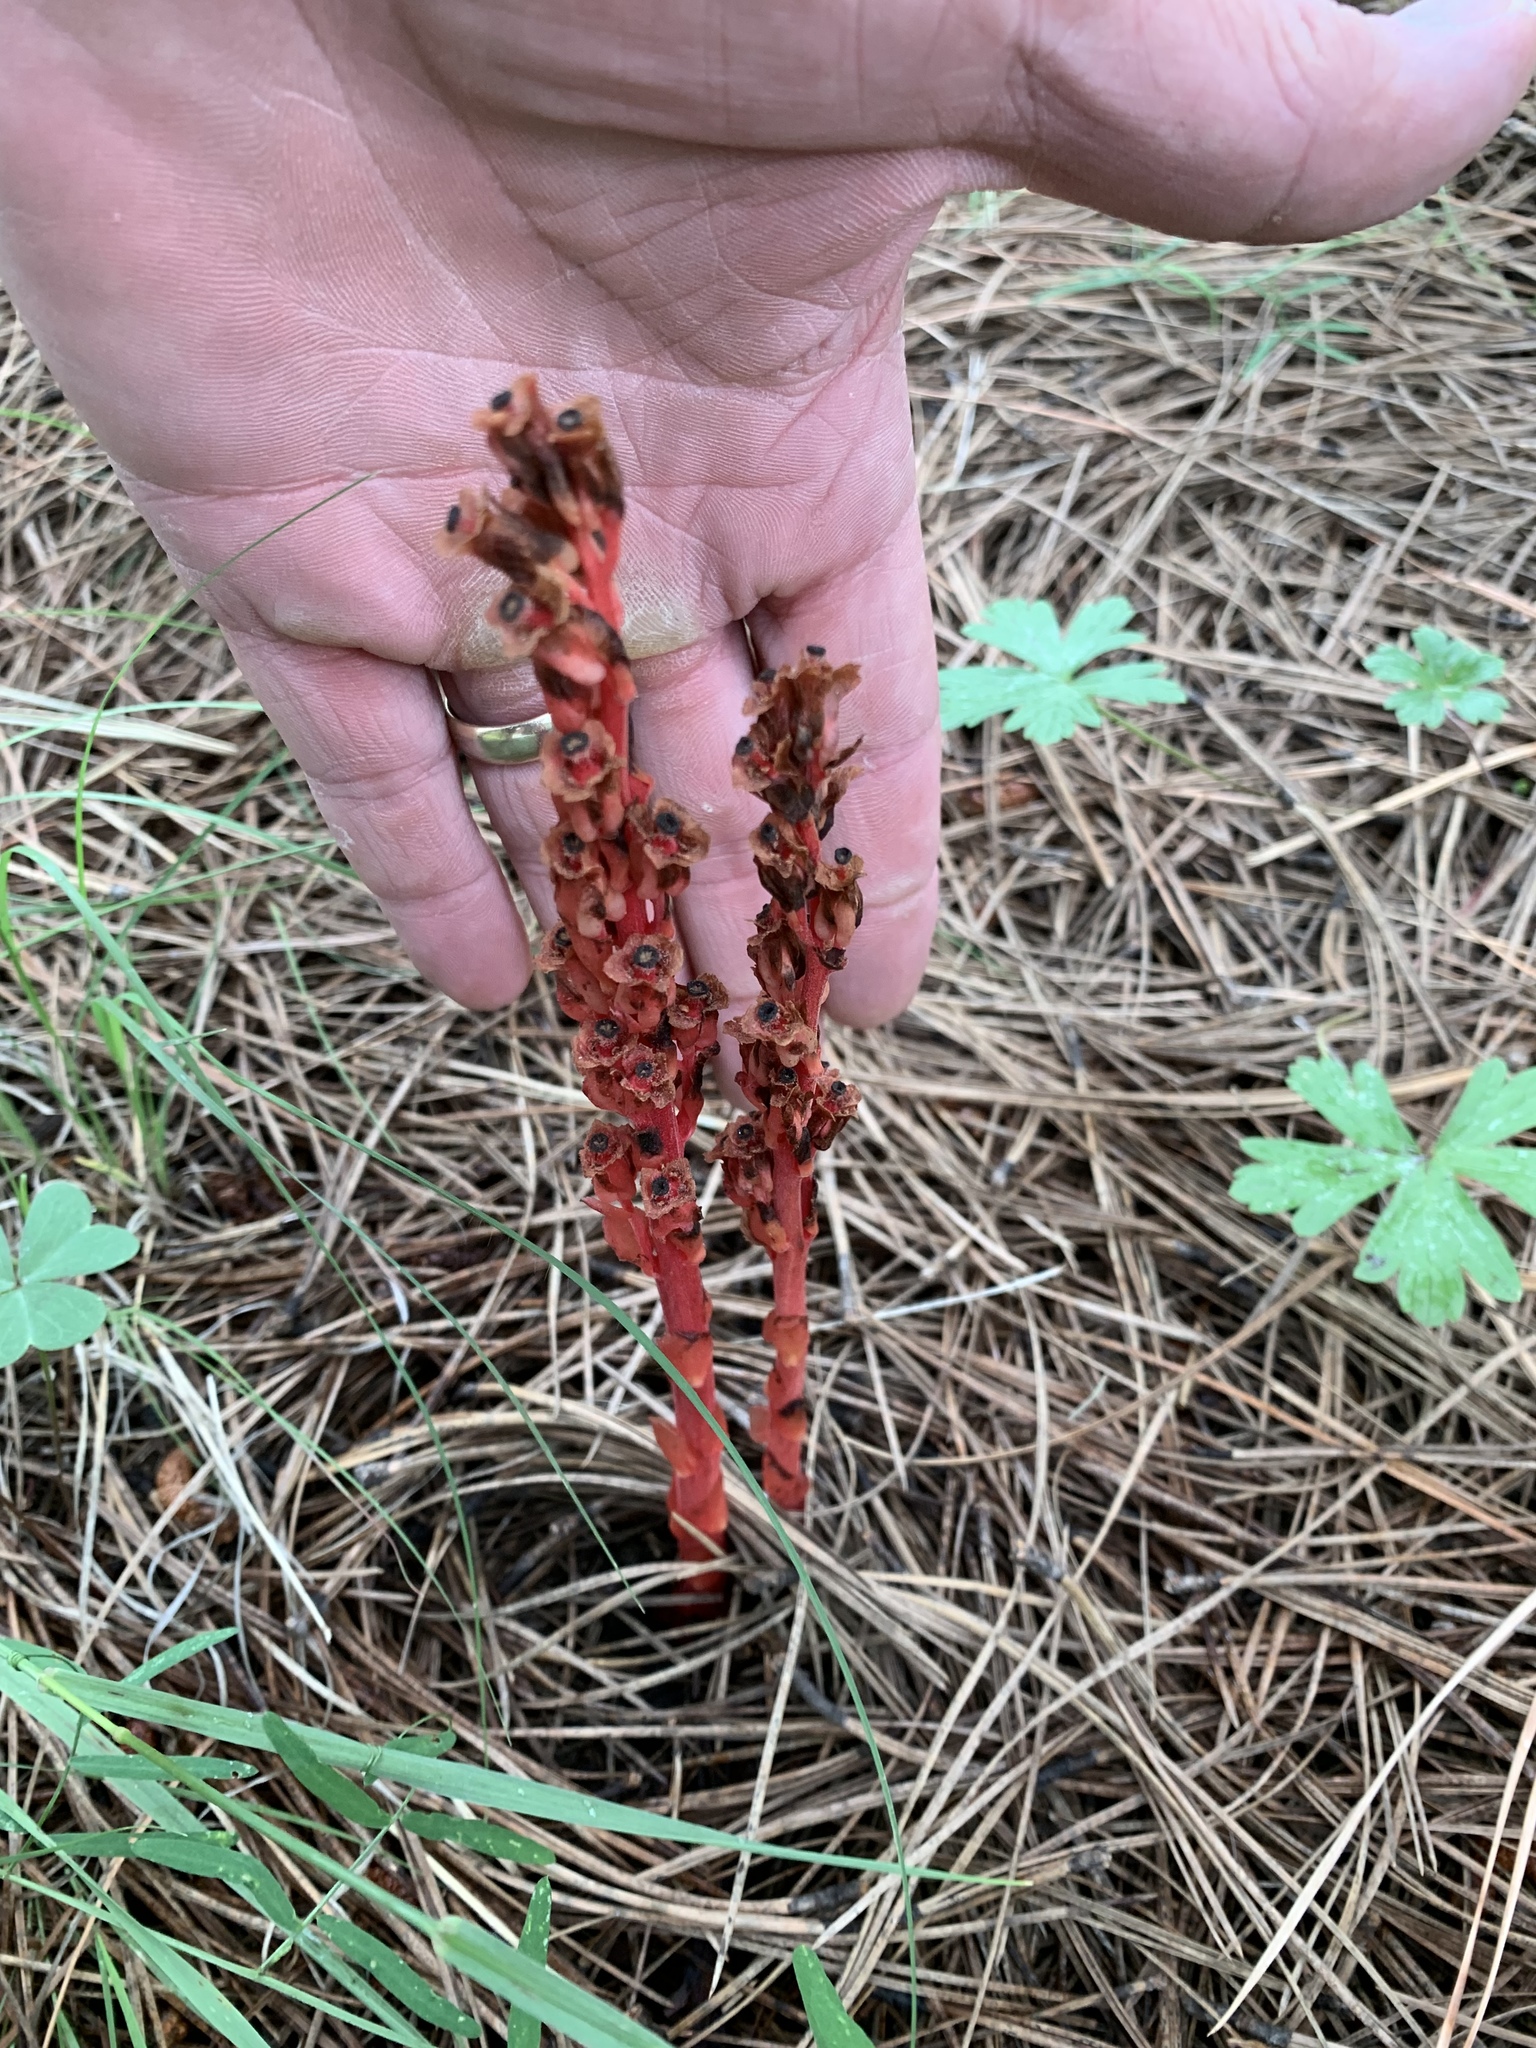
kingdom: Plantae
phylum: Tracheophyta
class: Magnoliopsida
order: Ericales
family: Ericaceae
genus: Hypopitys
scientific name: Hypopitys monotropa
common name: Yellow bird's-nest
